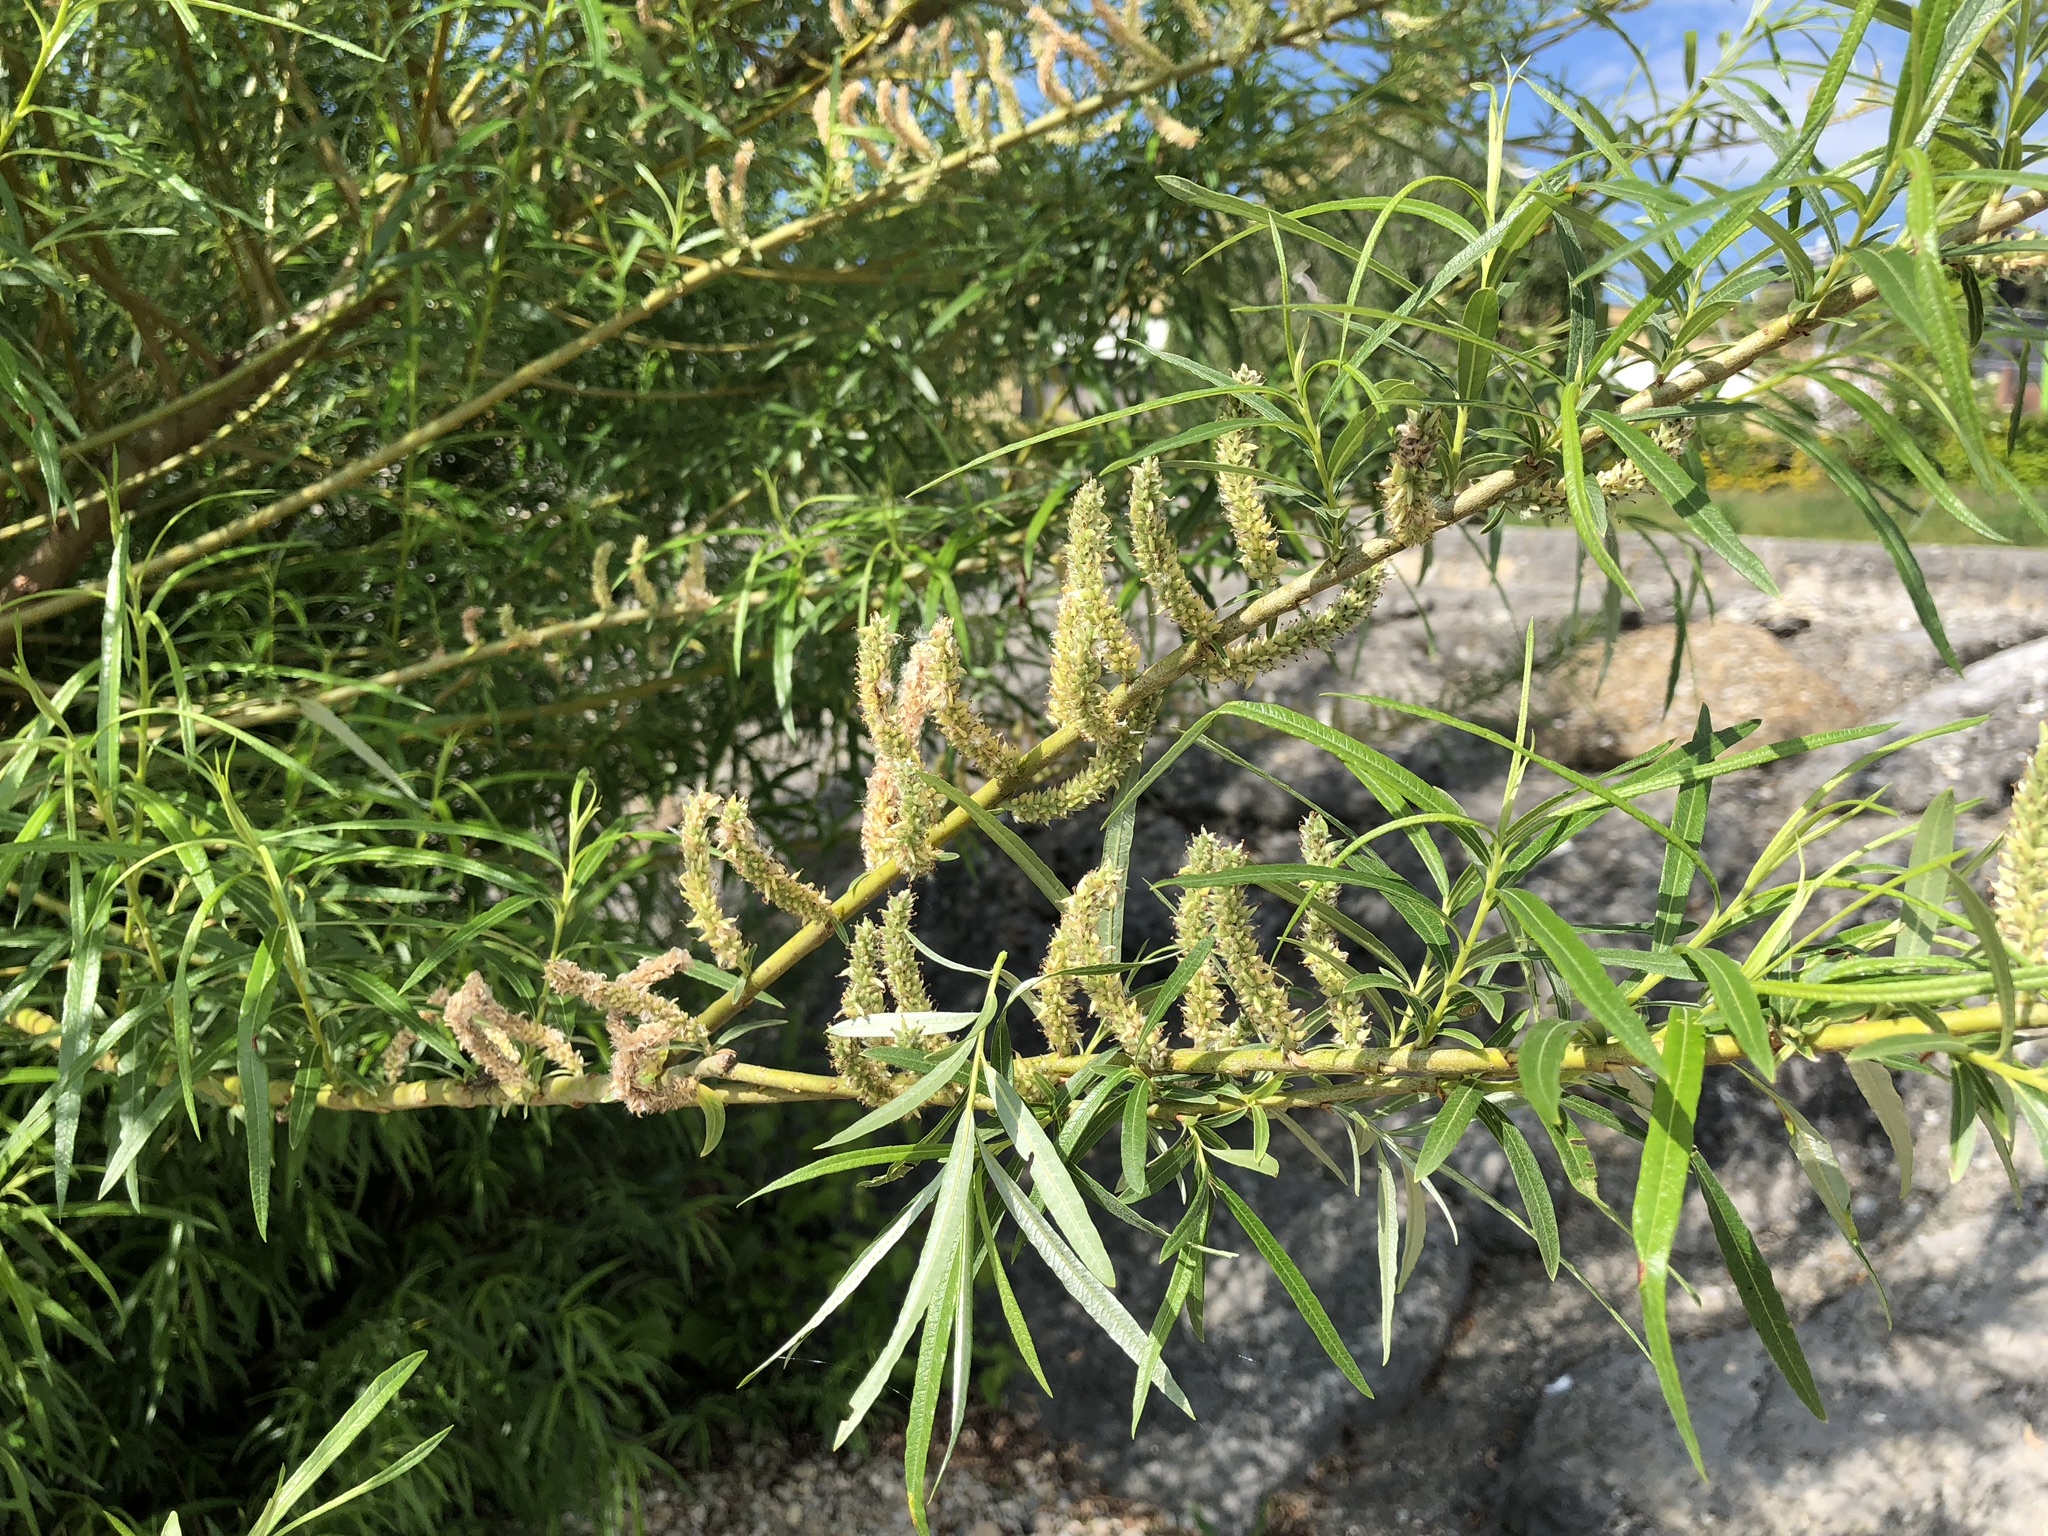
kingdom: Plantae
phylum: Tracheophyta
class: Magnoliopsida
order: Malpighiales
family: Salicaceae
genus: Salix
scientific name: Salix eleagnos
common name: Elaeagnus willow
